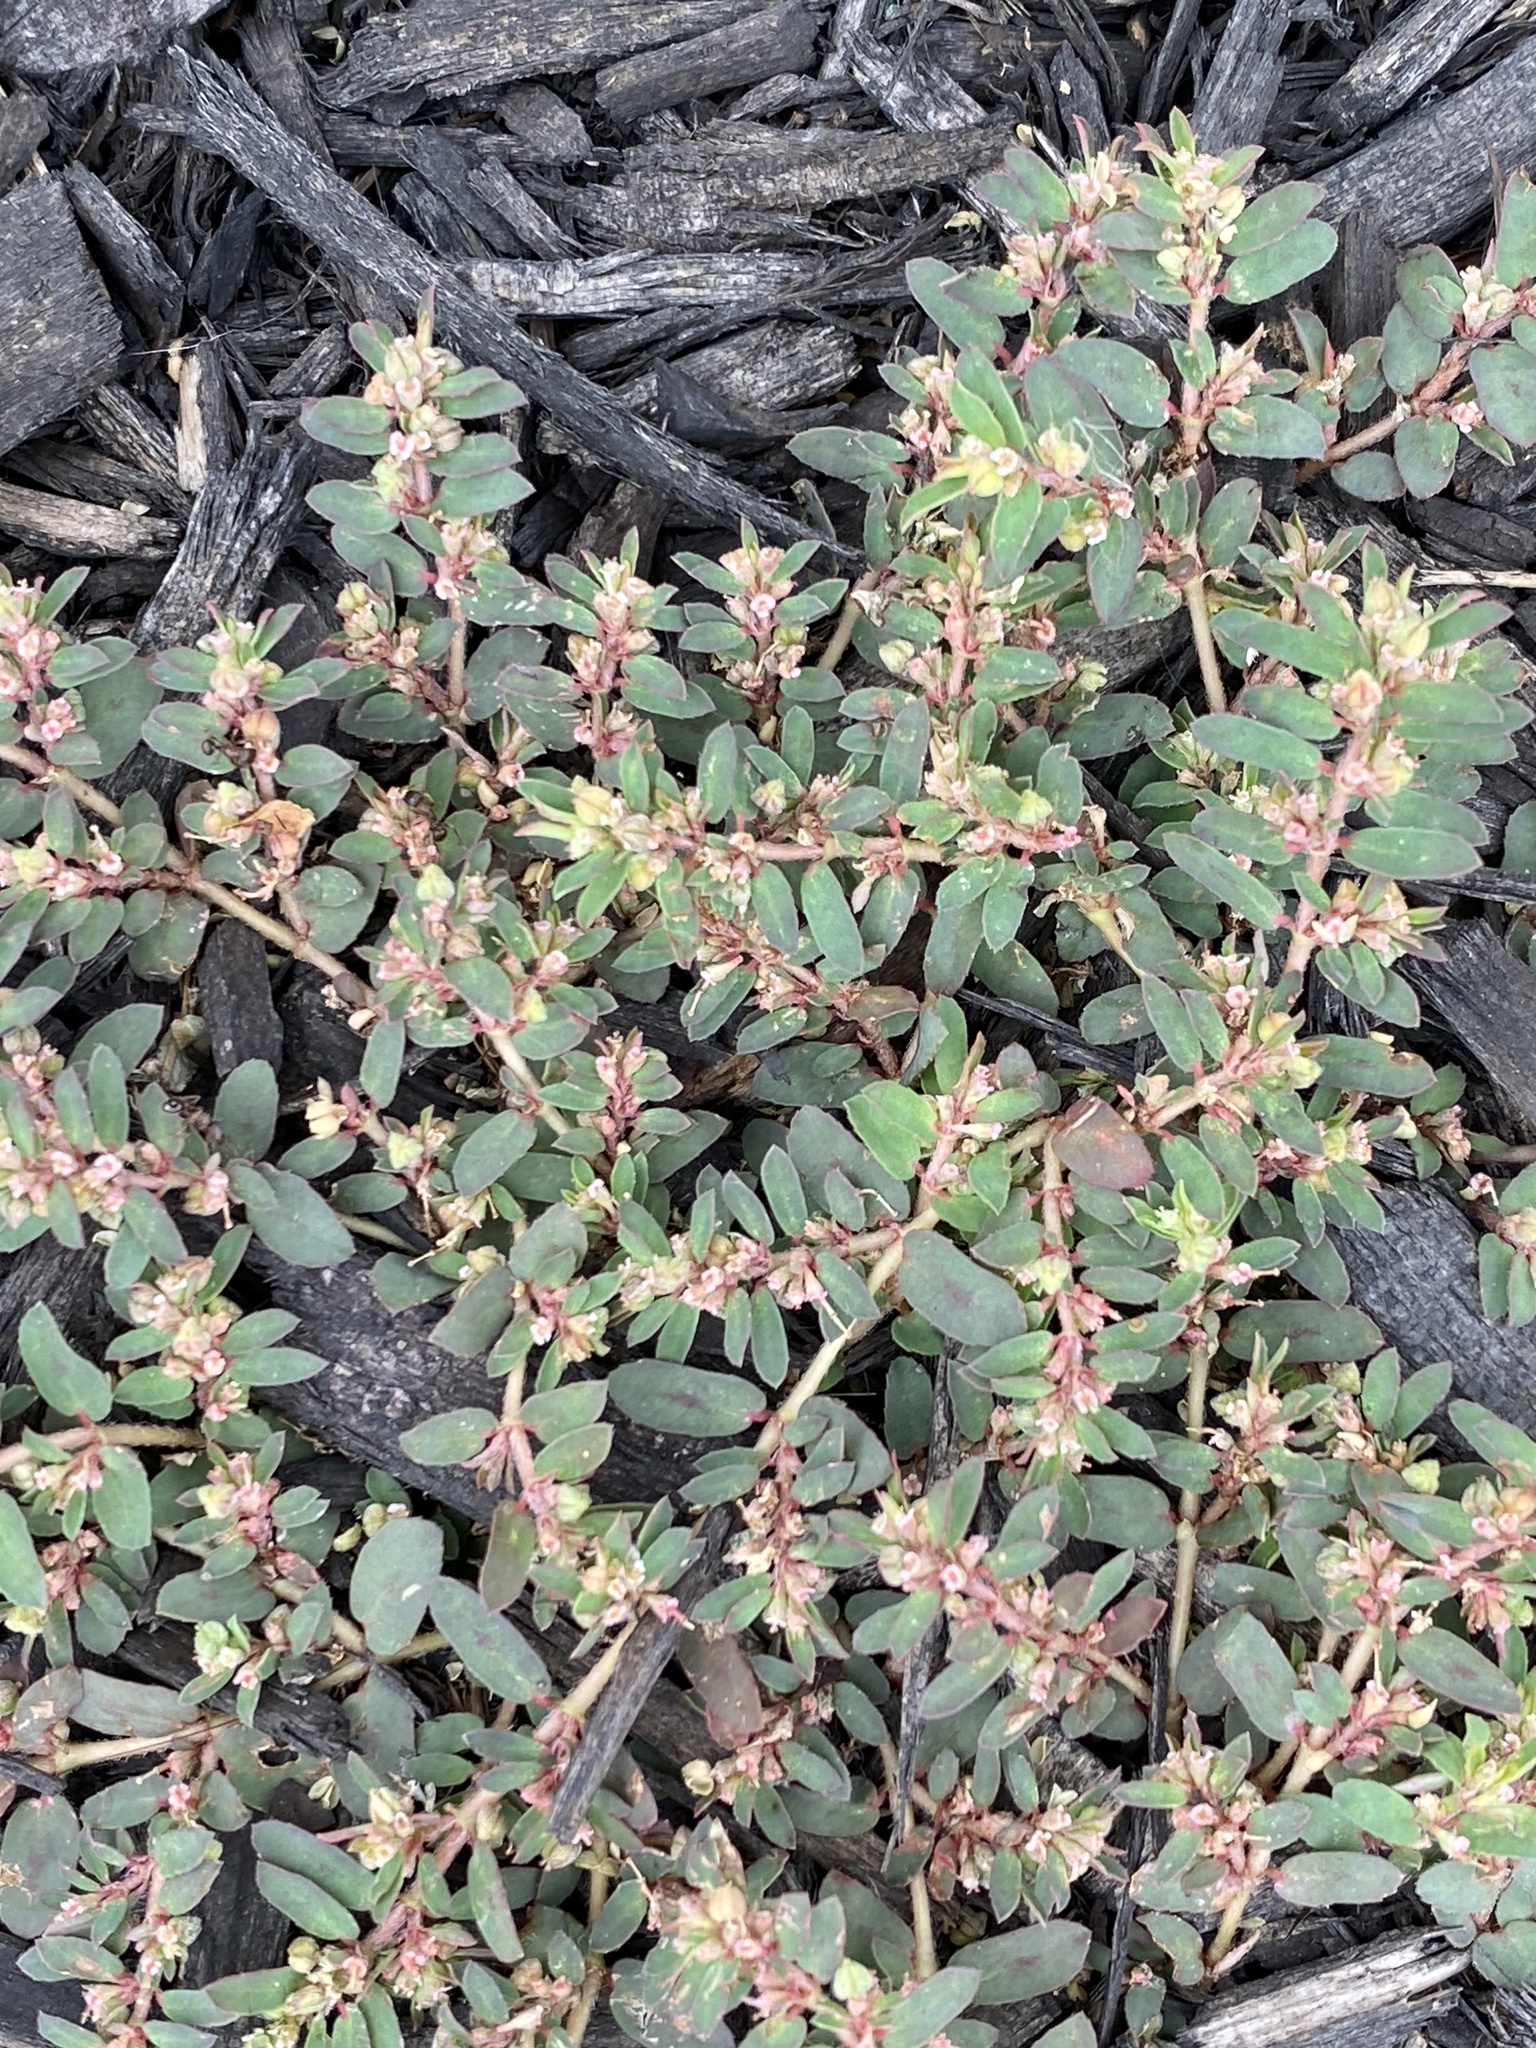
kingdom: Plantae
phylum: Tracheophyta
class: Magnoliopsida
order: Malpighiales
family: Euphorbiaceae
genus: Euphorbia
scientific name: Euphorbia maculata
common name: Spotted spurge
